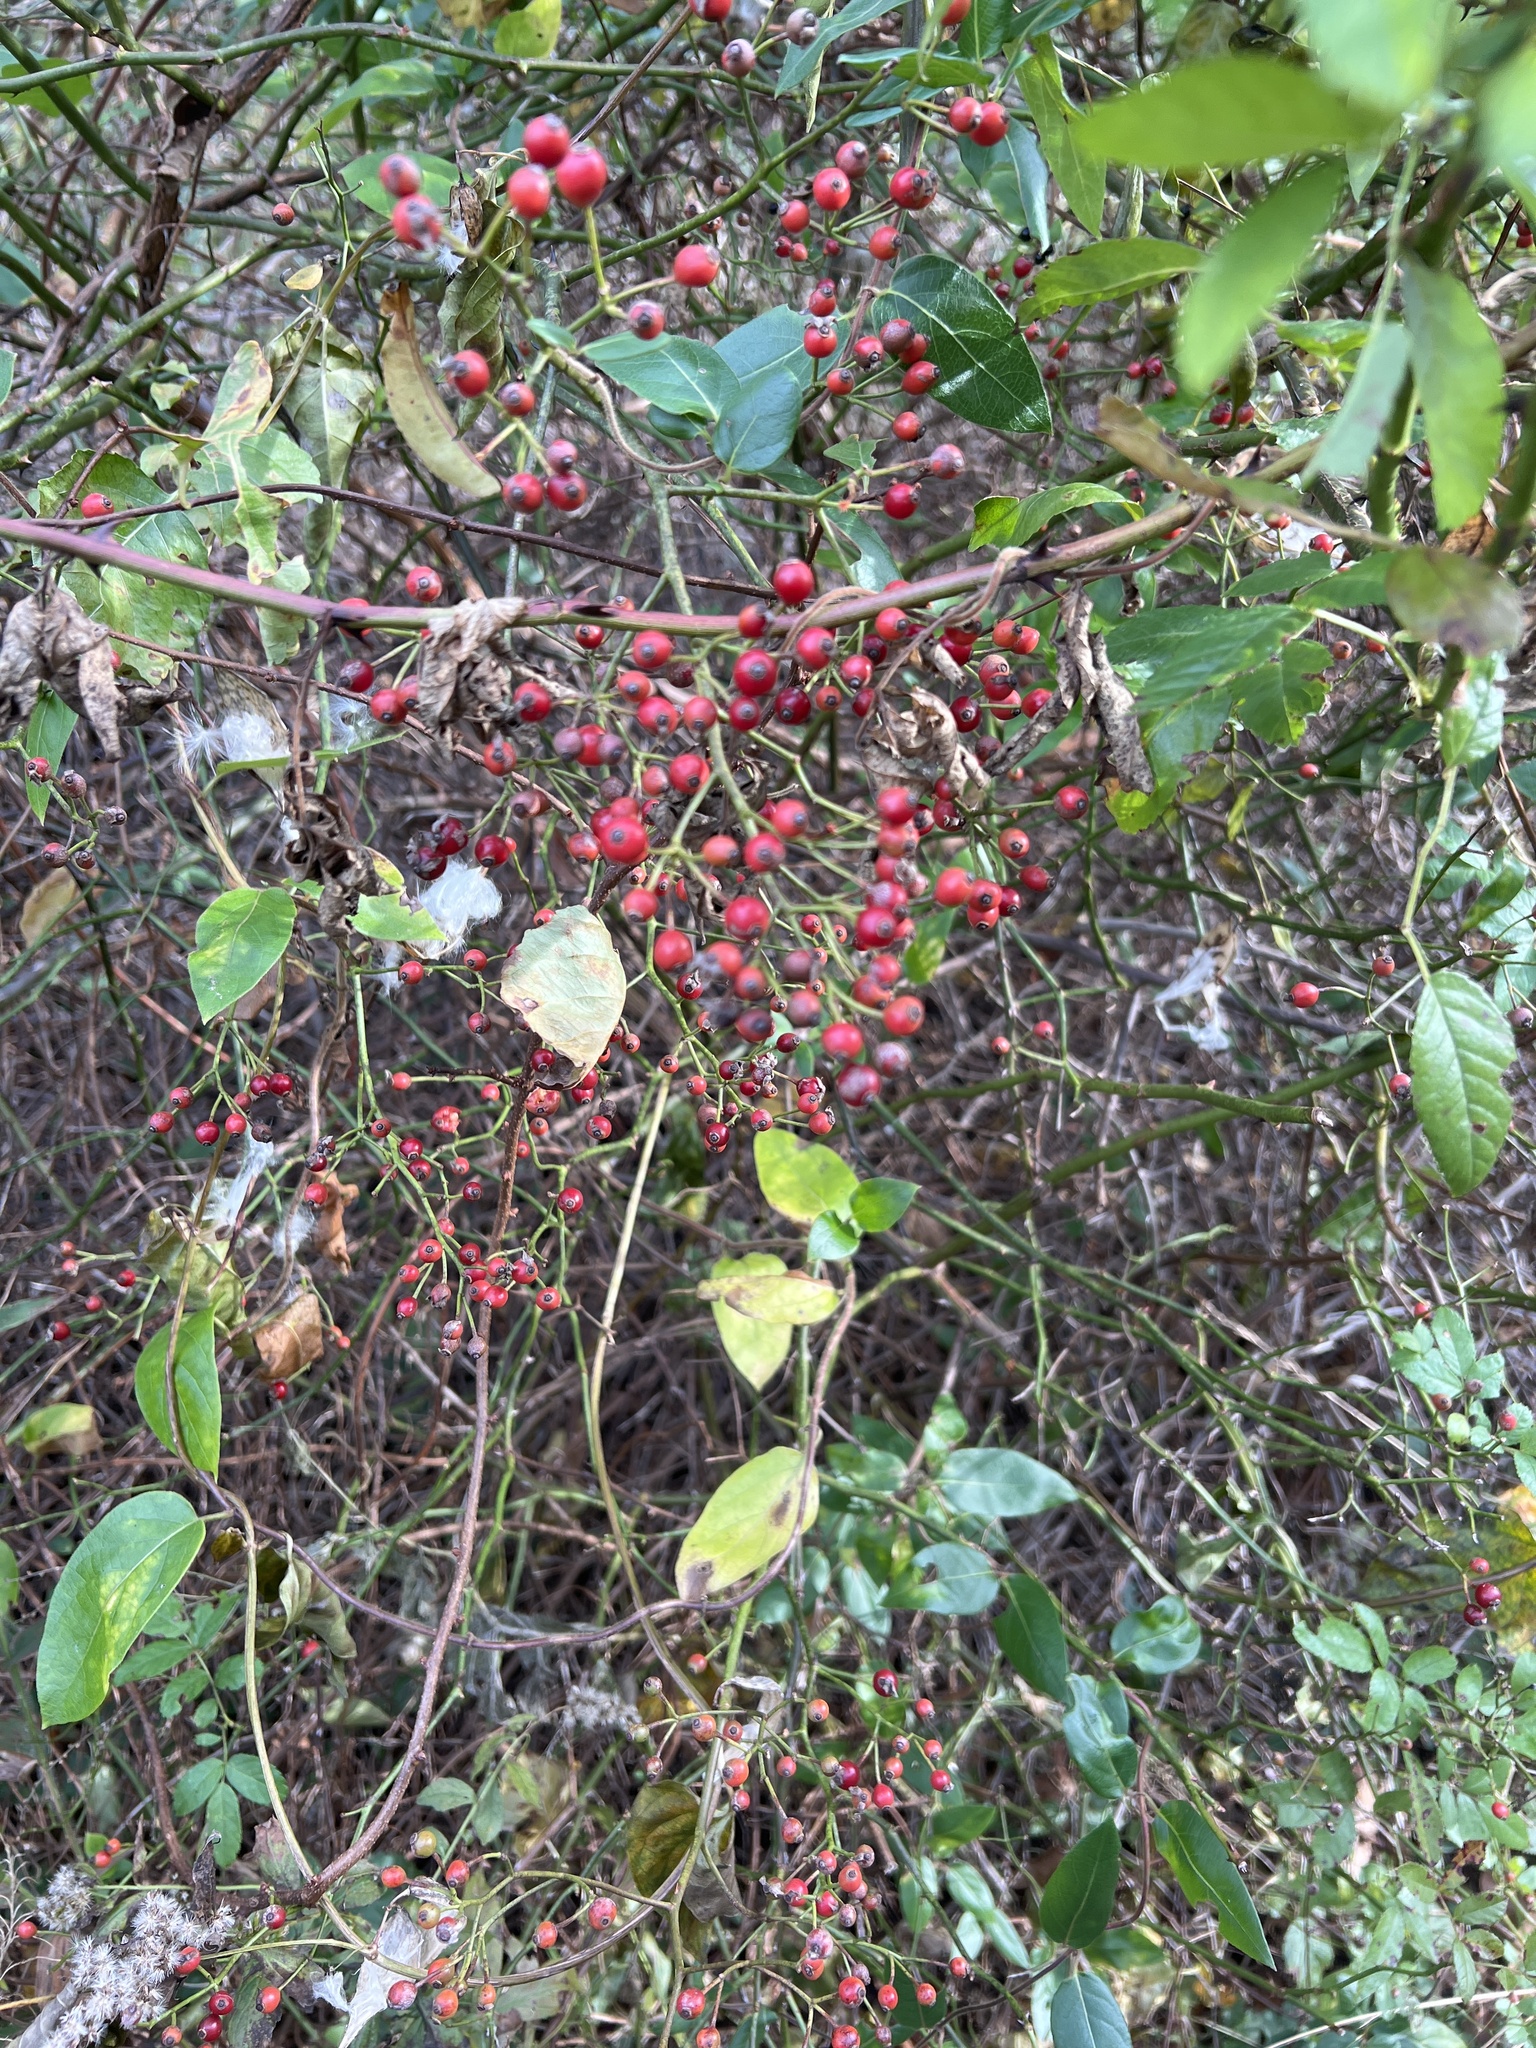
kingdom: Plantae
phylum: Tracheophyta
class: Magnoliopsida
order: Rosales
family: Rosaceae
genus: Rosa
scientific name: Rosa multiflora
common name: Multiflora rose
